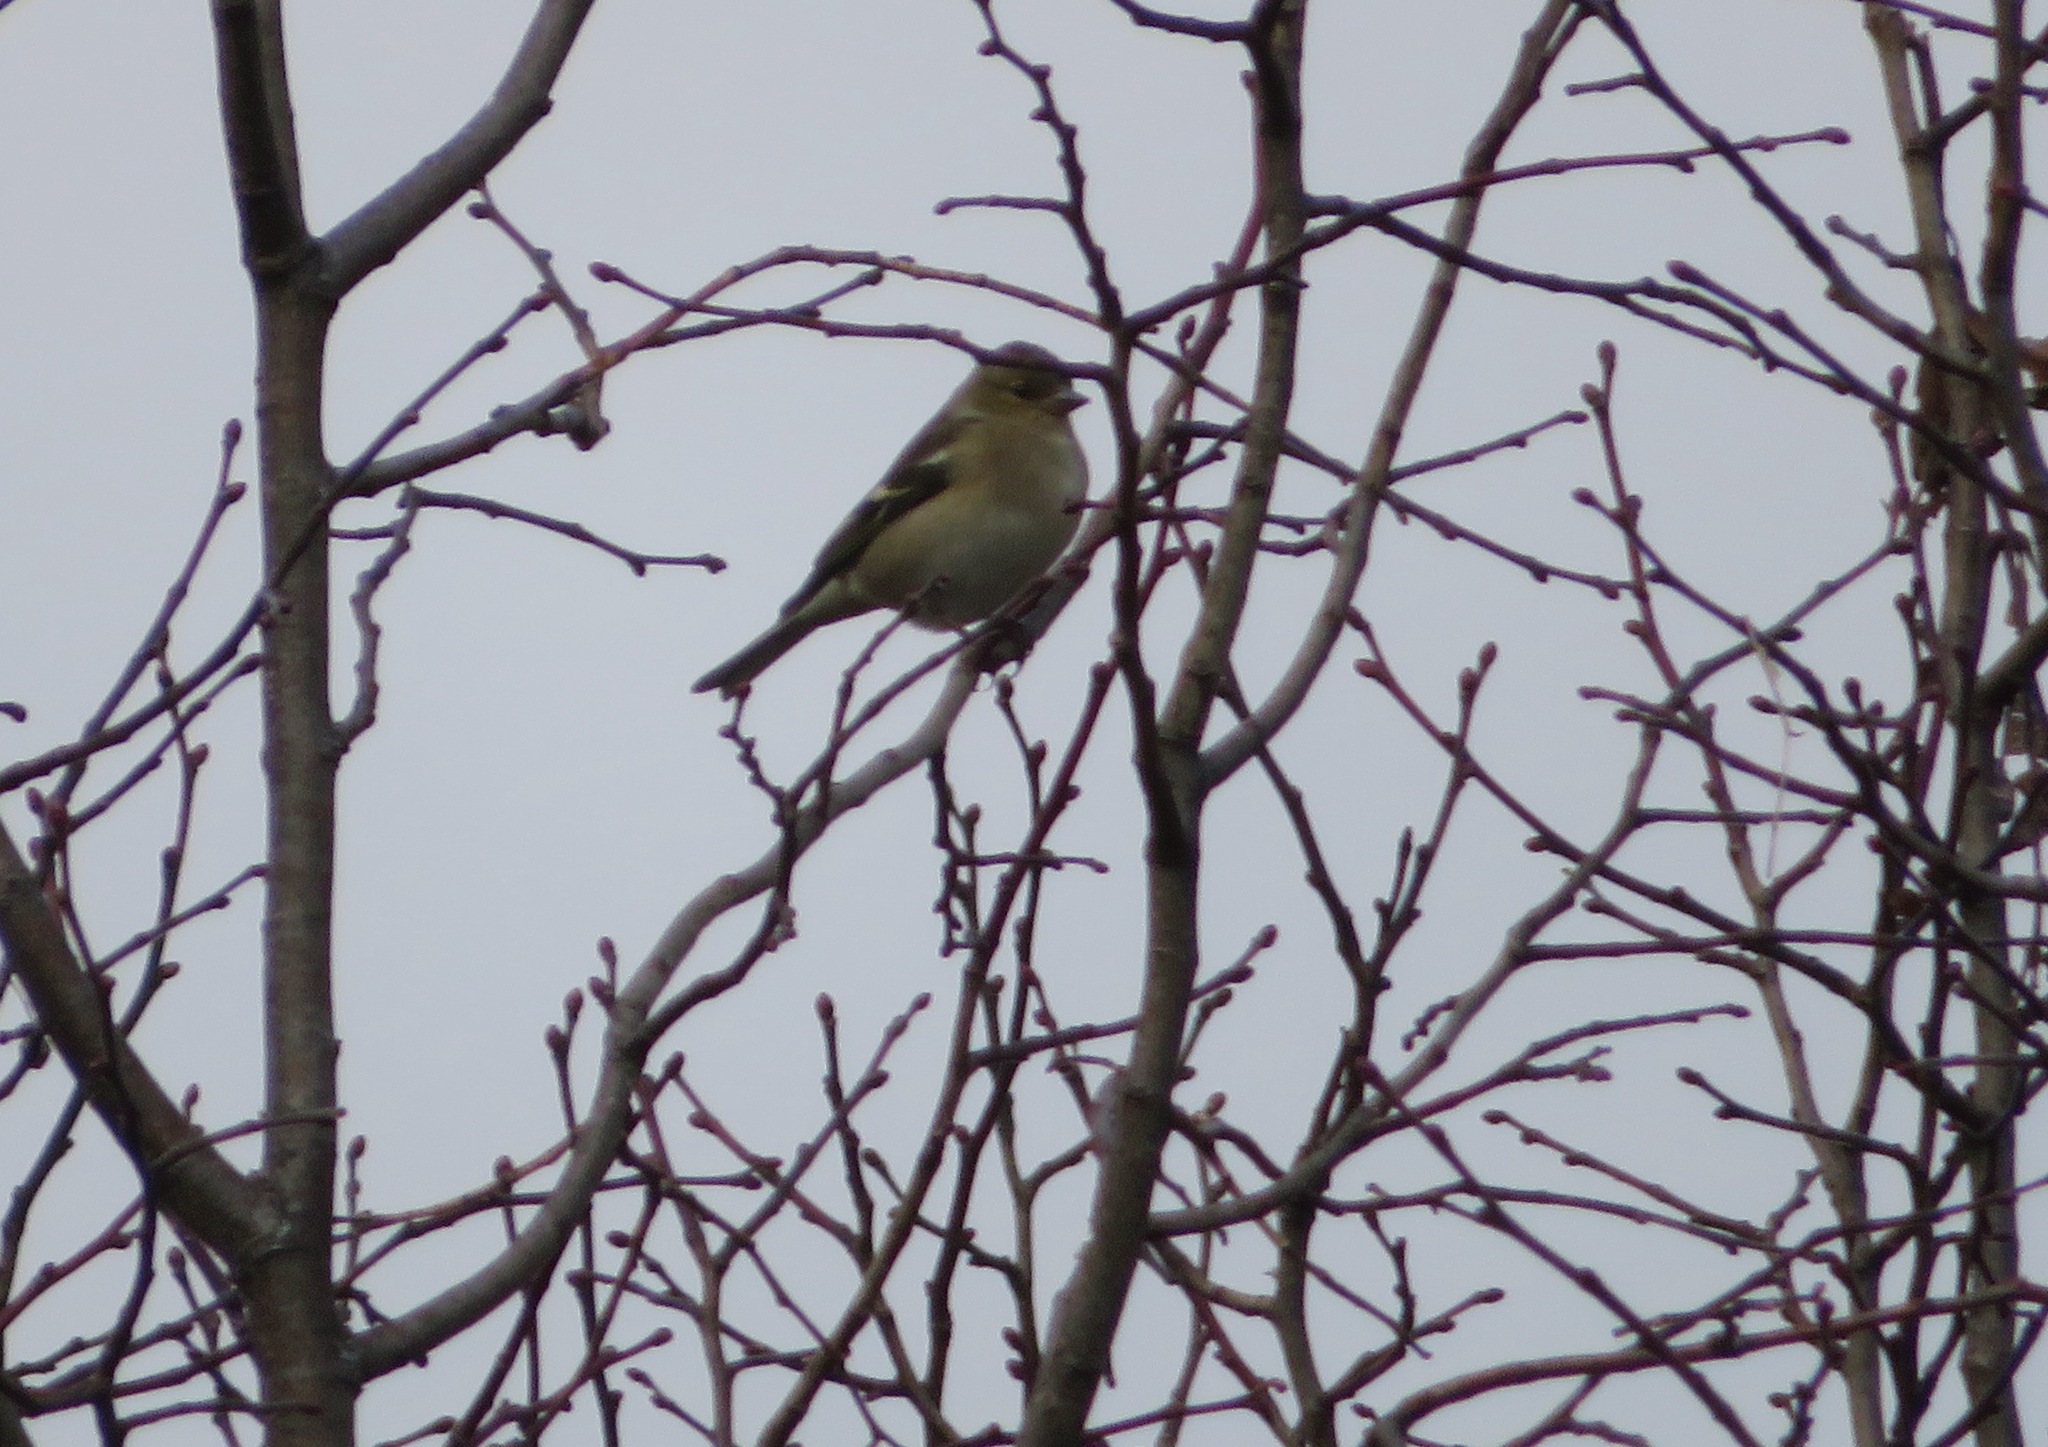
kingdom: Animalia
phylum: Chordata
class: Aves
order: Passeriformes
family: Fringillidae
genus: Fringilla
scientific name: Fringilla coelebs
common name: Common chaffinch
